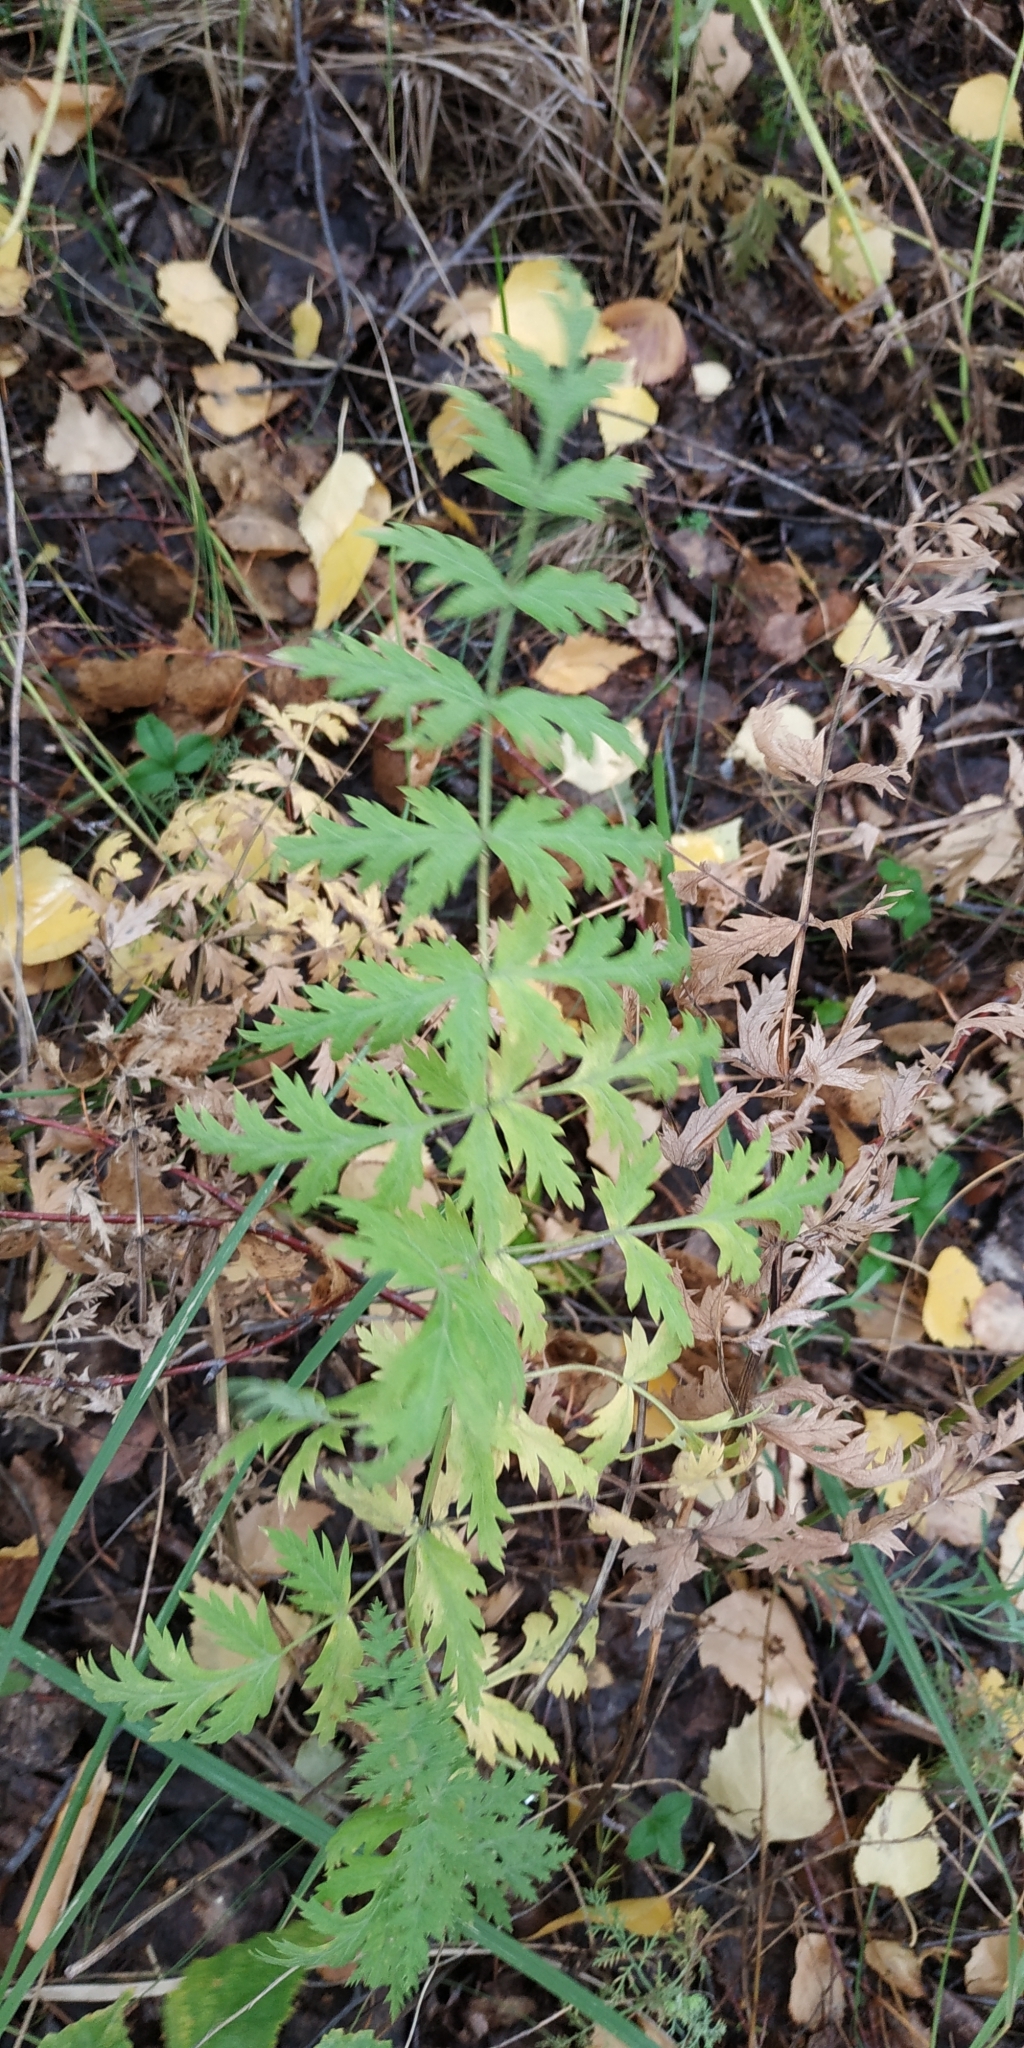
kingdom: Plantae
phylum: Tracheophyta
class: Magnoliopsida
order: Apiales
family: Apiaceae
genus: Seseli
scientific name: Seseli libanotis
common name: Mooncarrot
